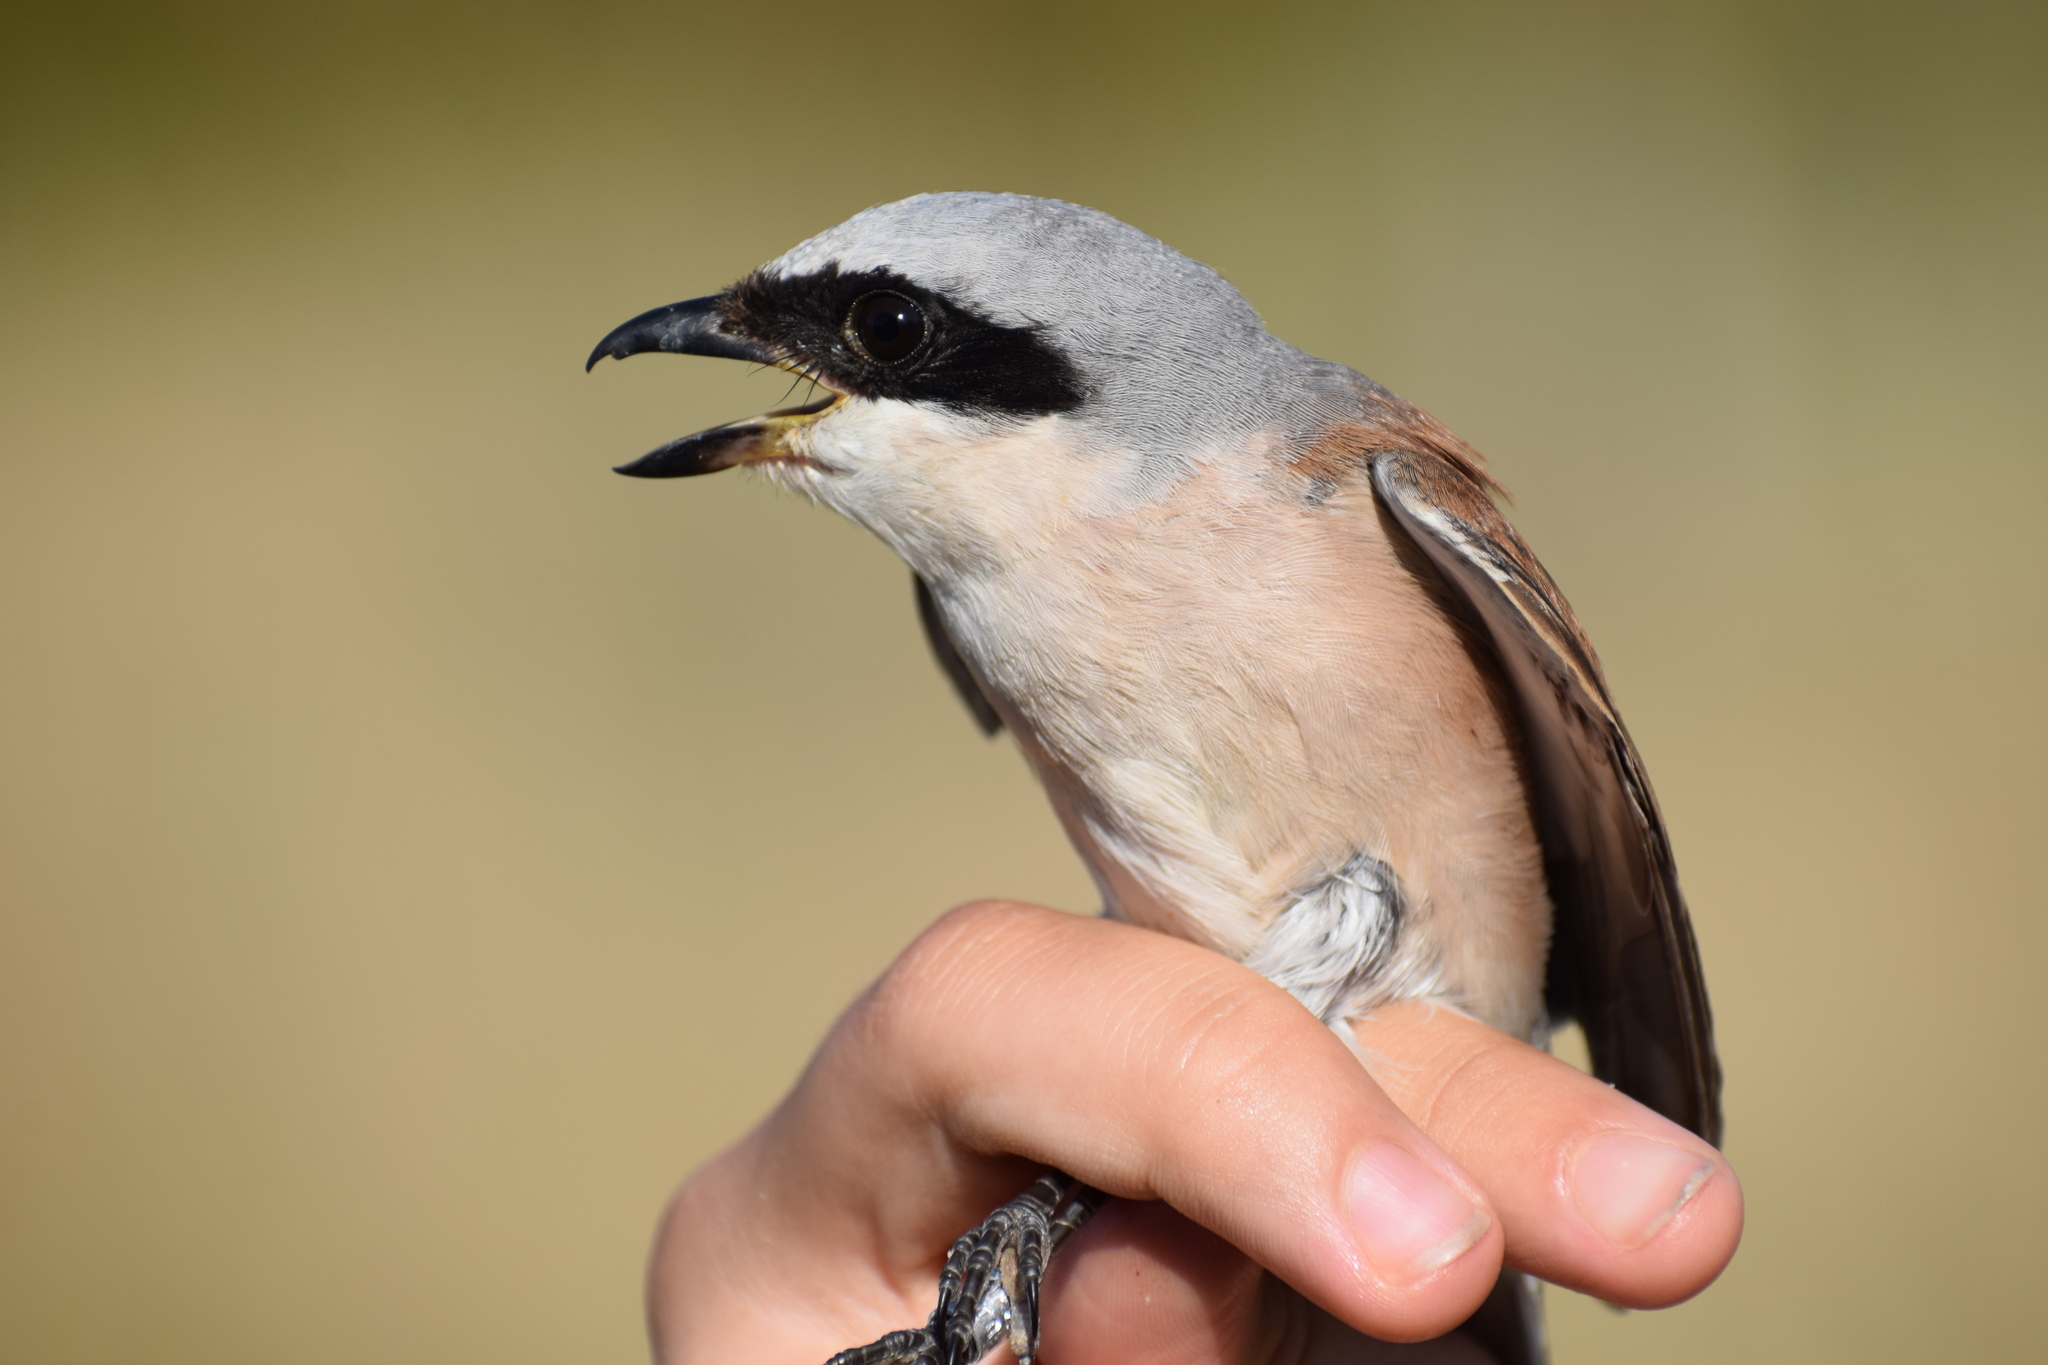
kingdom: Animalia
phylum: Chordata
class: Aves
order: Passeriformes
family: Laniidae
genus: Lanius
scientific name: Lanius collurio
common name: Red-backed shrike
